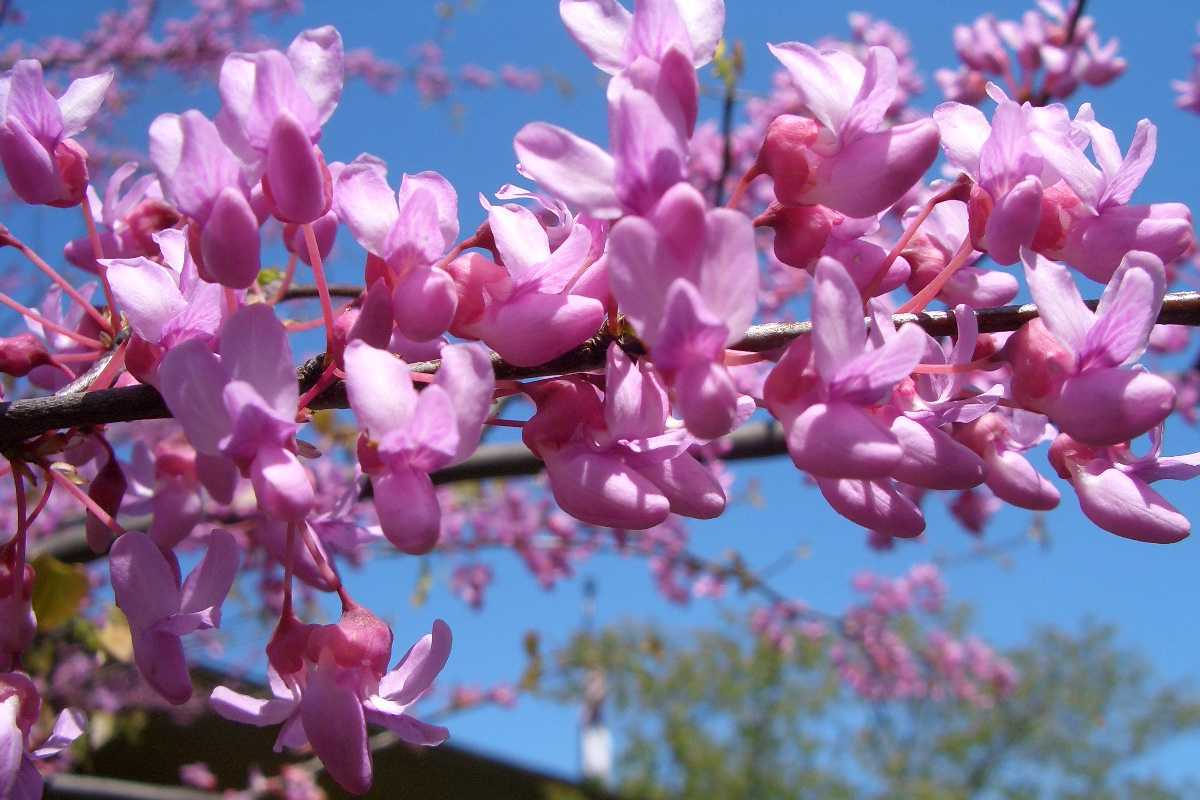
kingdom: Plantae
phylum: Tracheophyta
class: Magnoliopsida
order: Fabales
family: Fabaceae
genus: Cercis
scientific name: Cercis canadensis
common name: Eastern redbud
